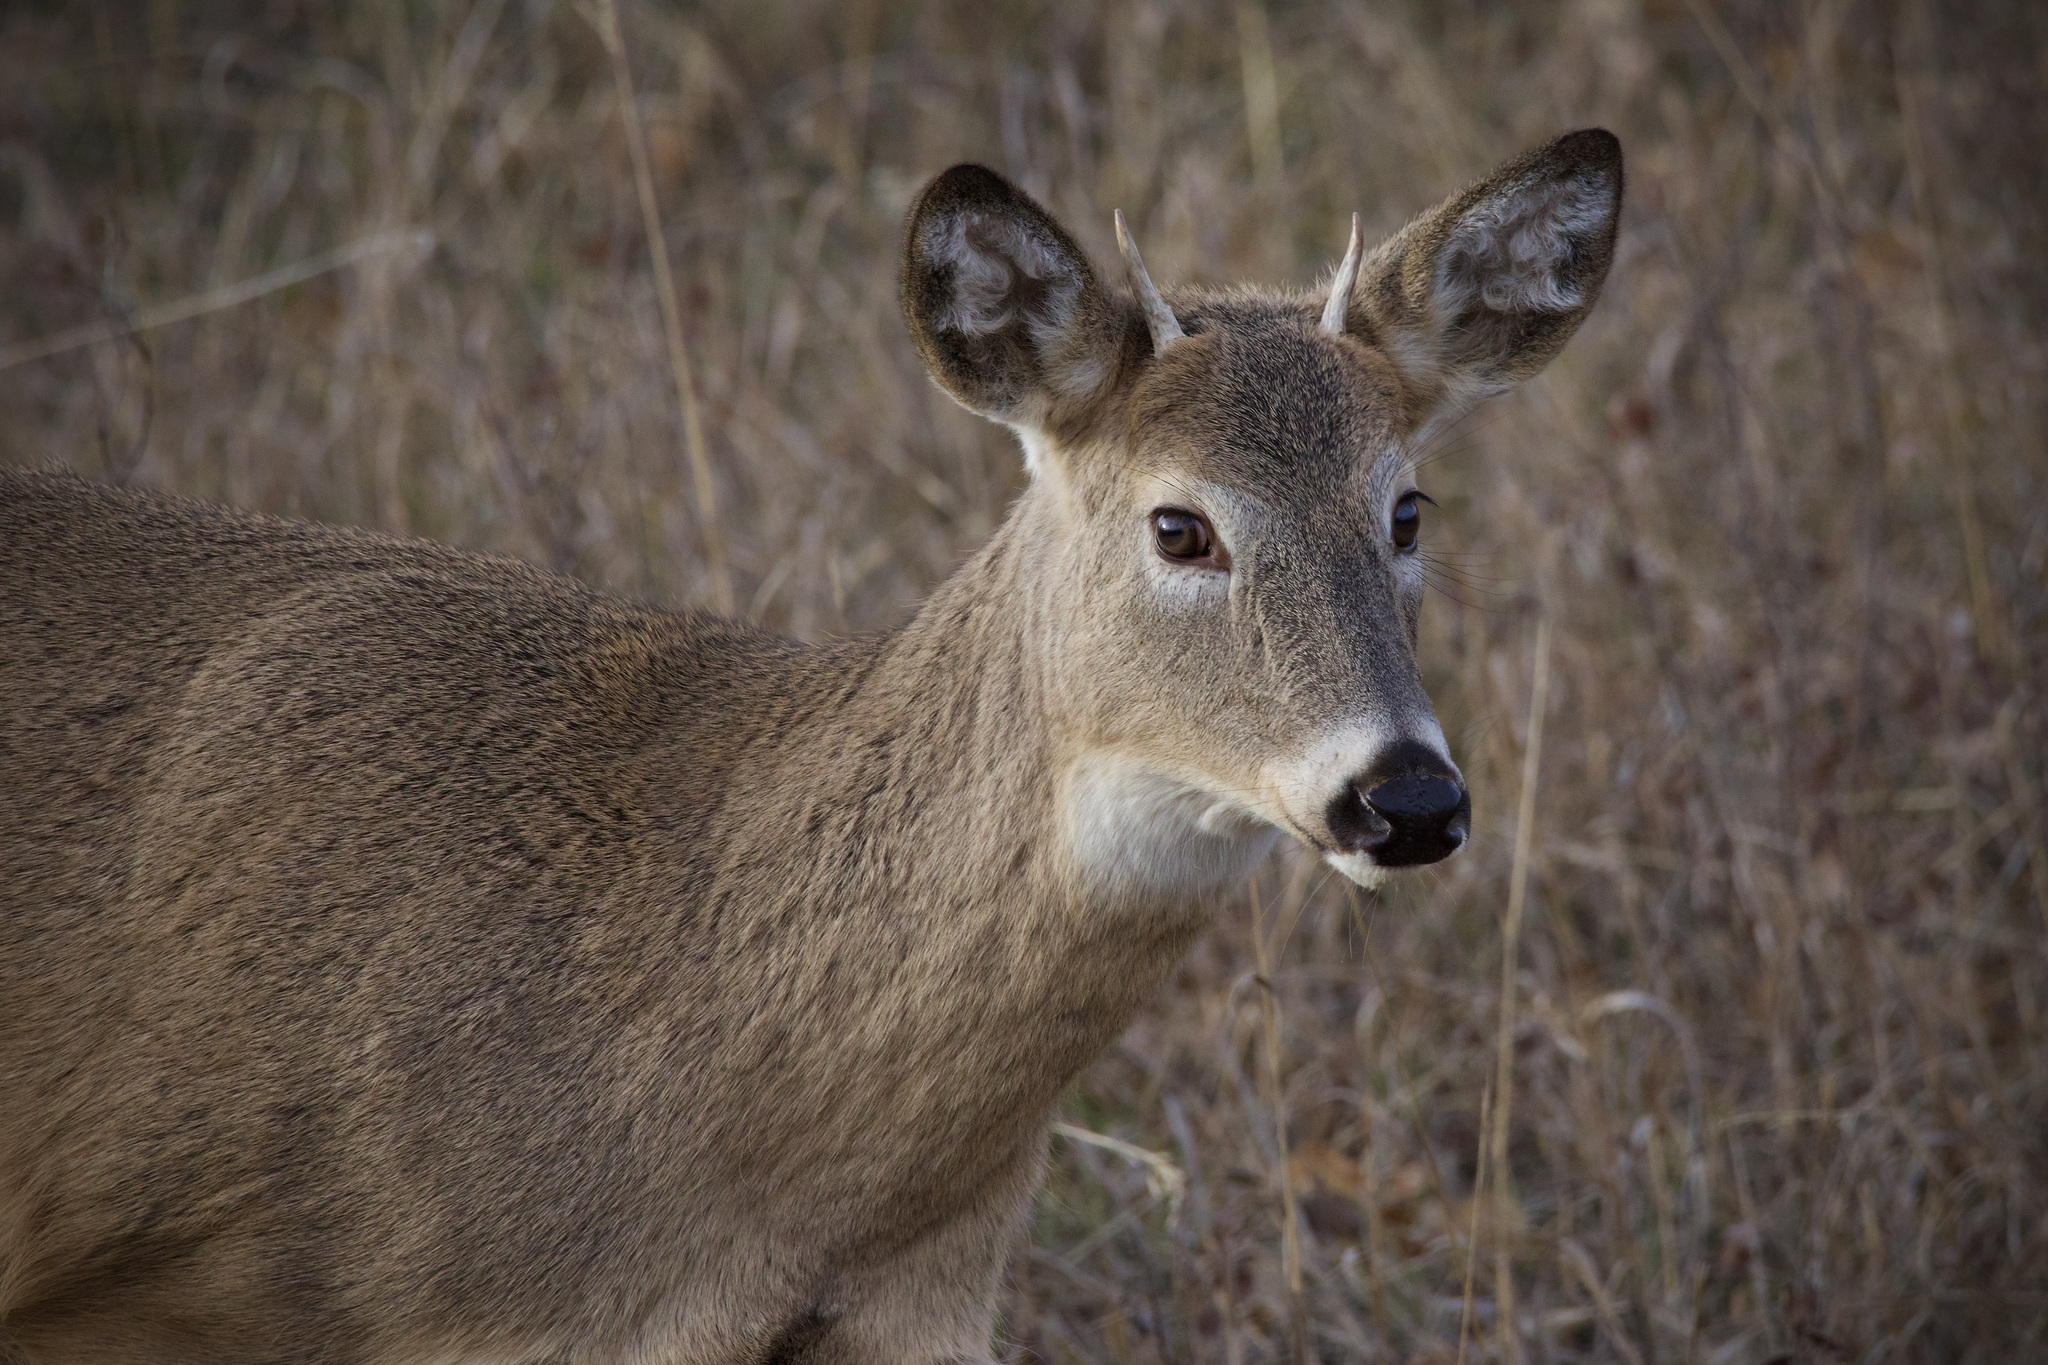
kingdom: Animalia
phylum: Chordata
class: Mammalia
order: Artiodactyla
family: Cervidae
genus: Odocoileus
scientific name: Odocoileus virginianus
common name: White-tailed deer
